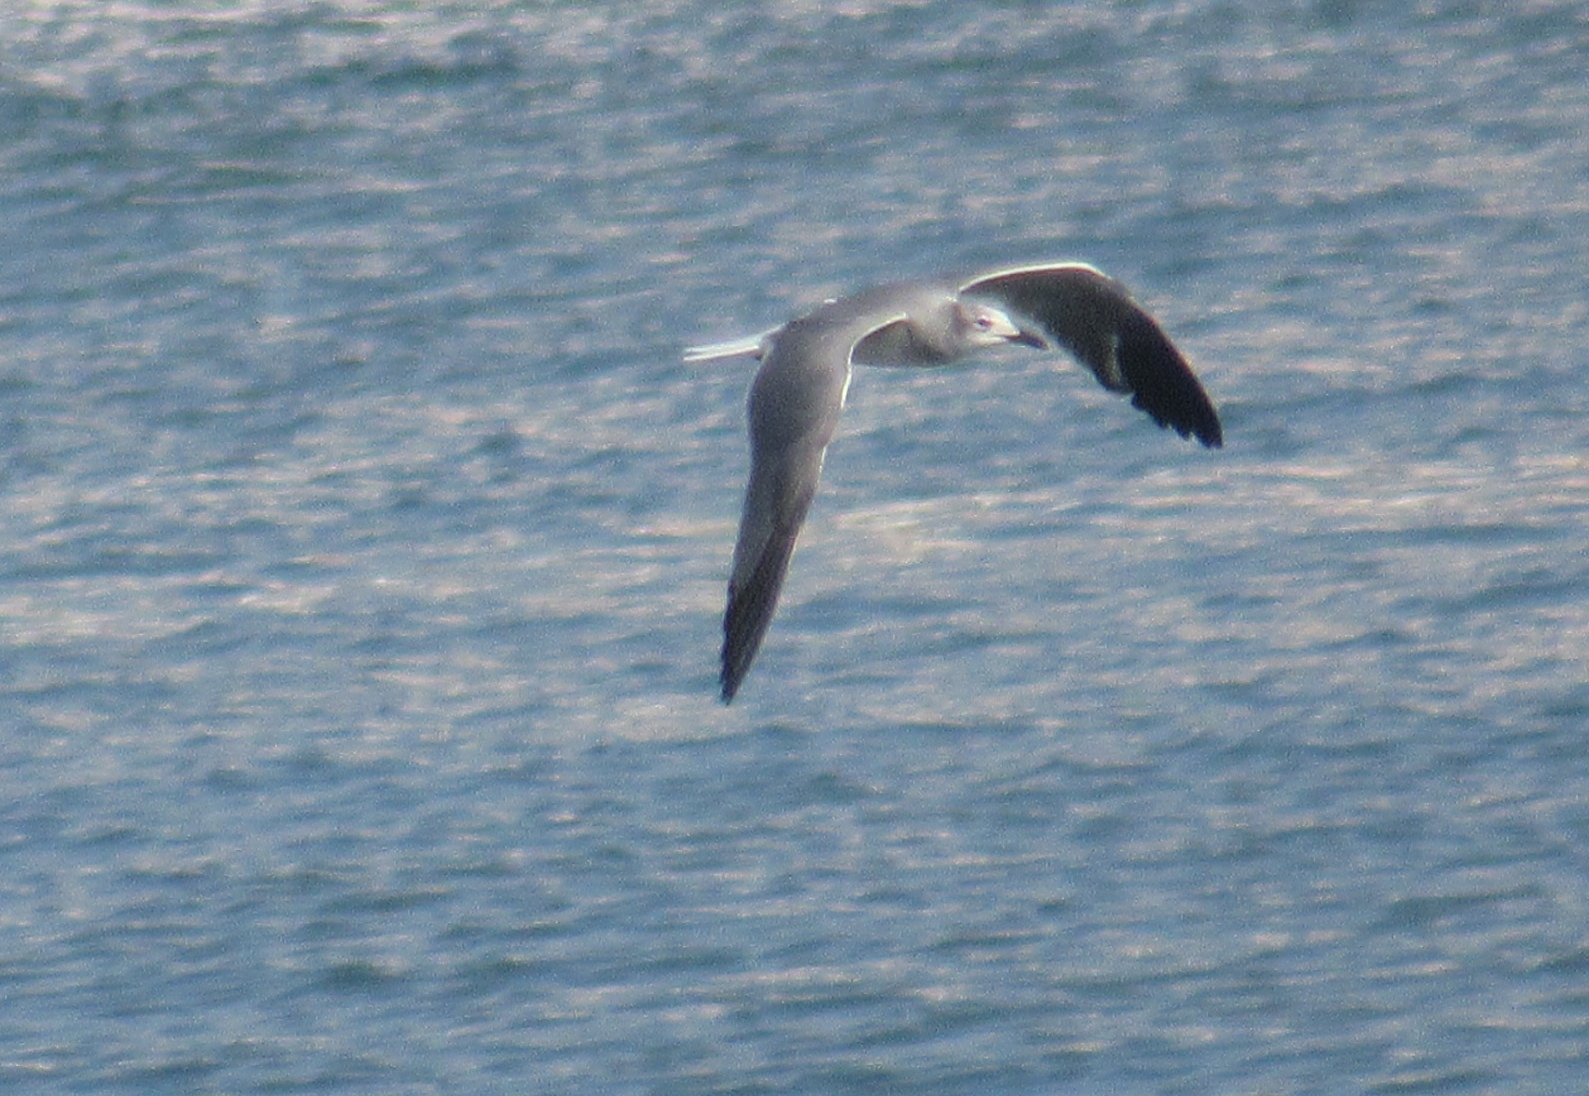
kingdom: Animalia
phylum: Chordata
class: Aves
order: Charadriiformes
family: Laridae
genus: Leucophaeus
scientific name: Leucophaeus atricilla
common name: Laughing gull
